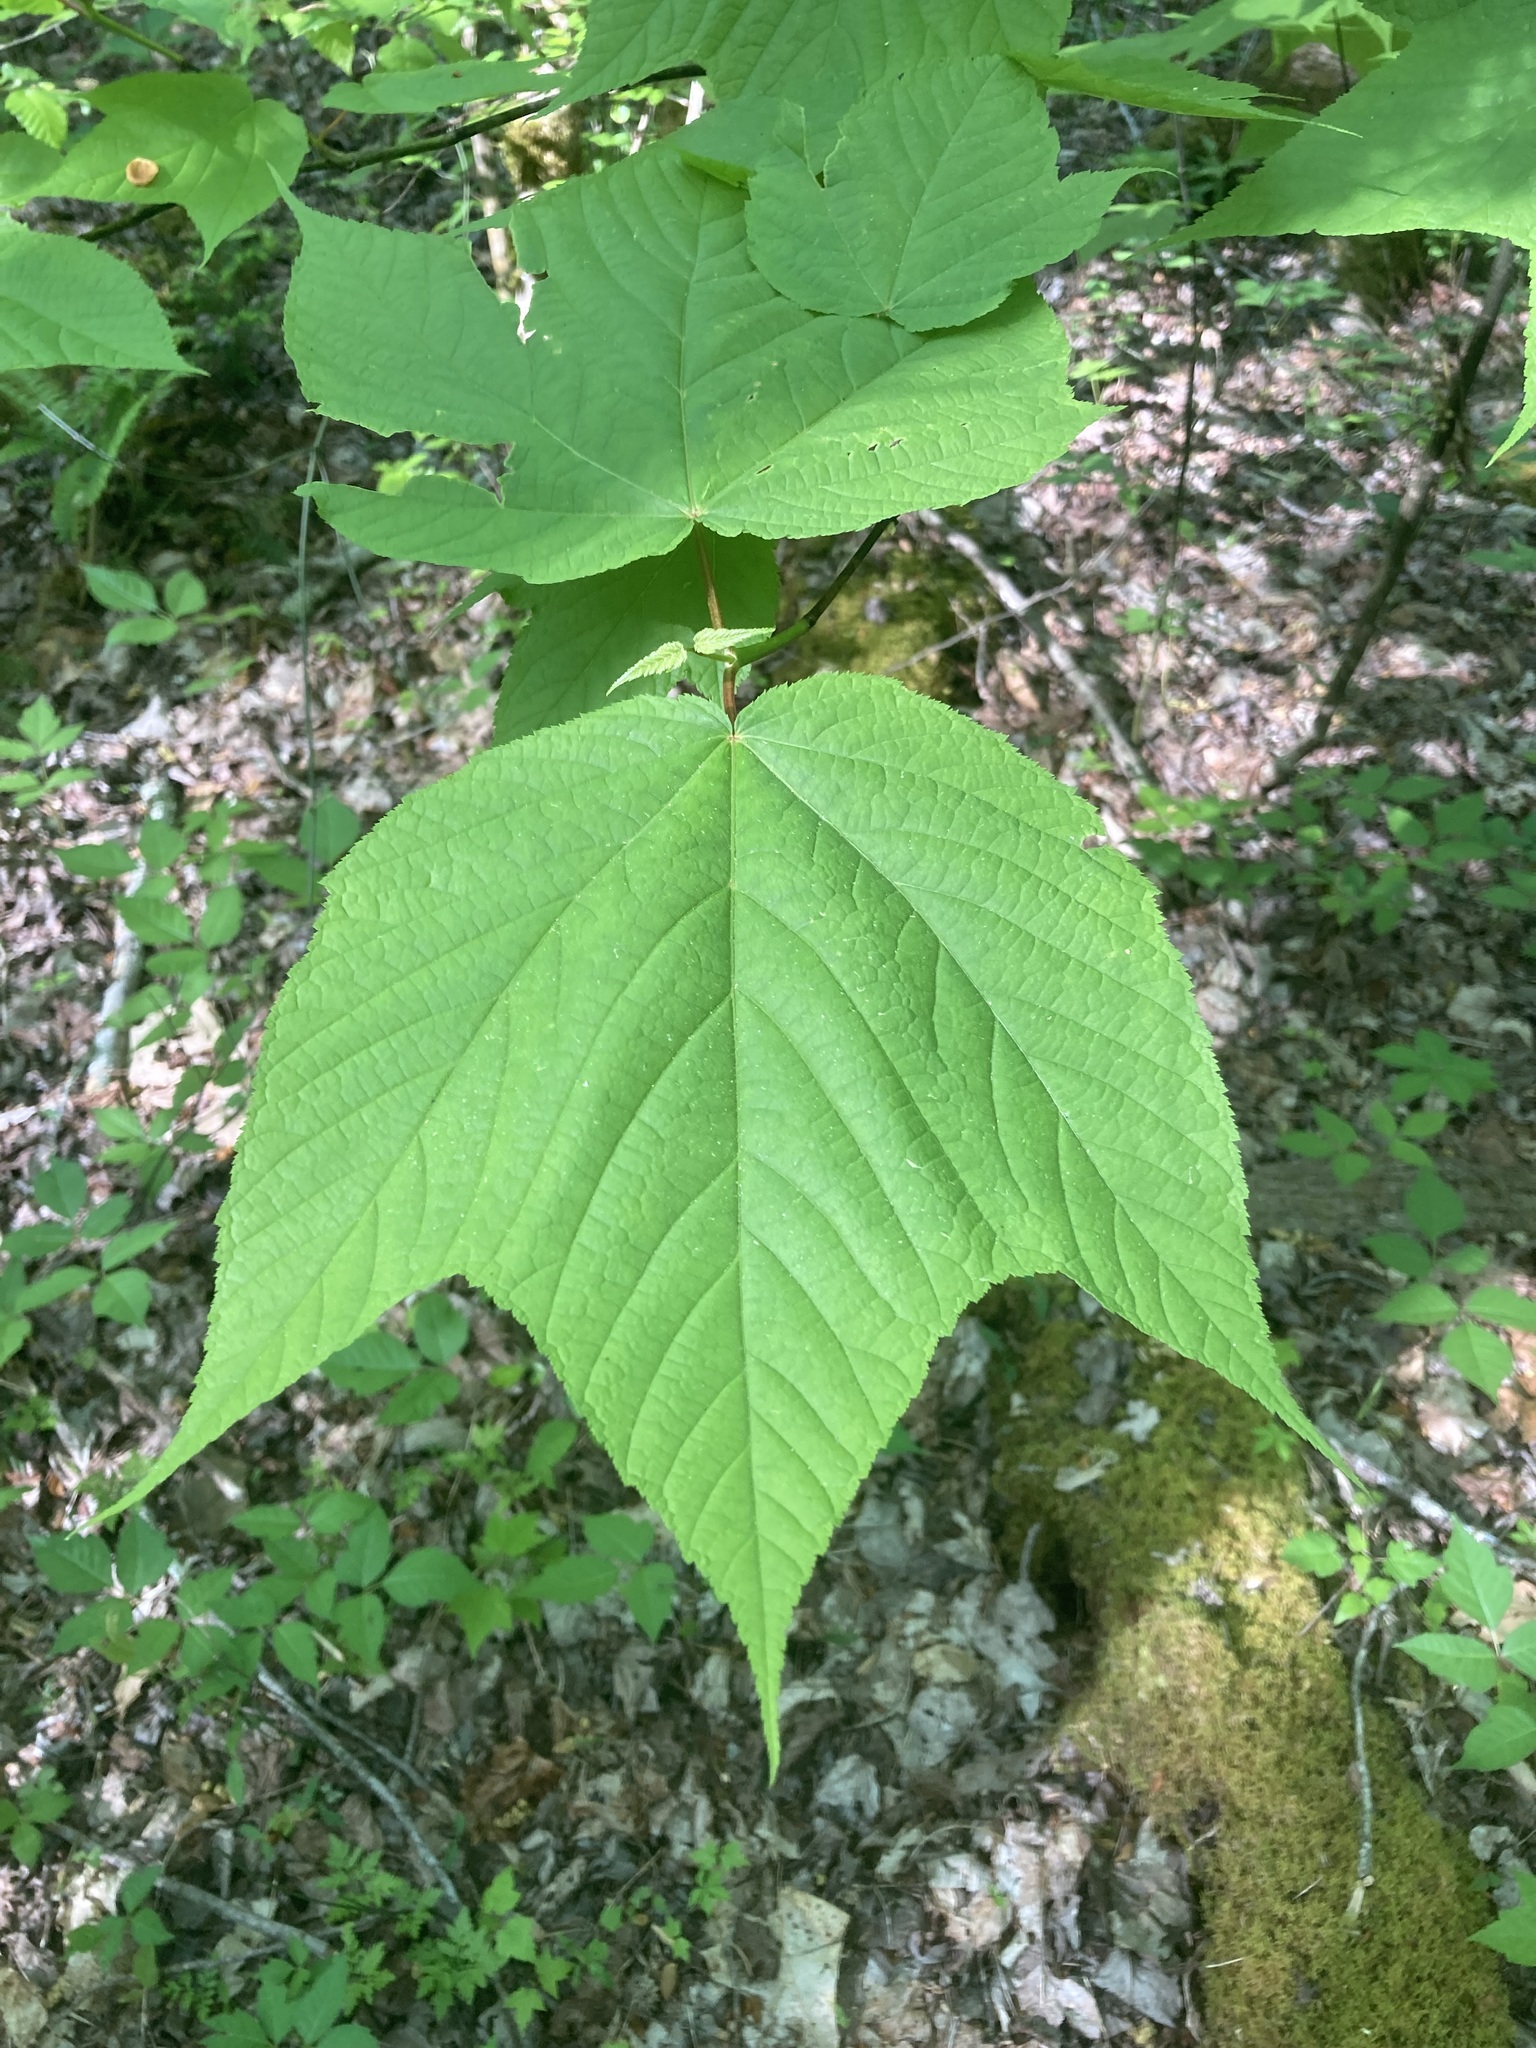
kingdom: Plantae
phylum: Tracheophyta
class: Magnoliopsida
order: Sapindales
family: Sapindaceae
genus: Acer
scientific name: Acer pensylvanicum
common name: Moosewood
